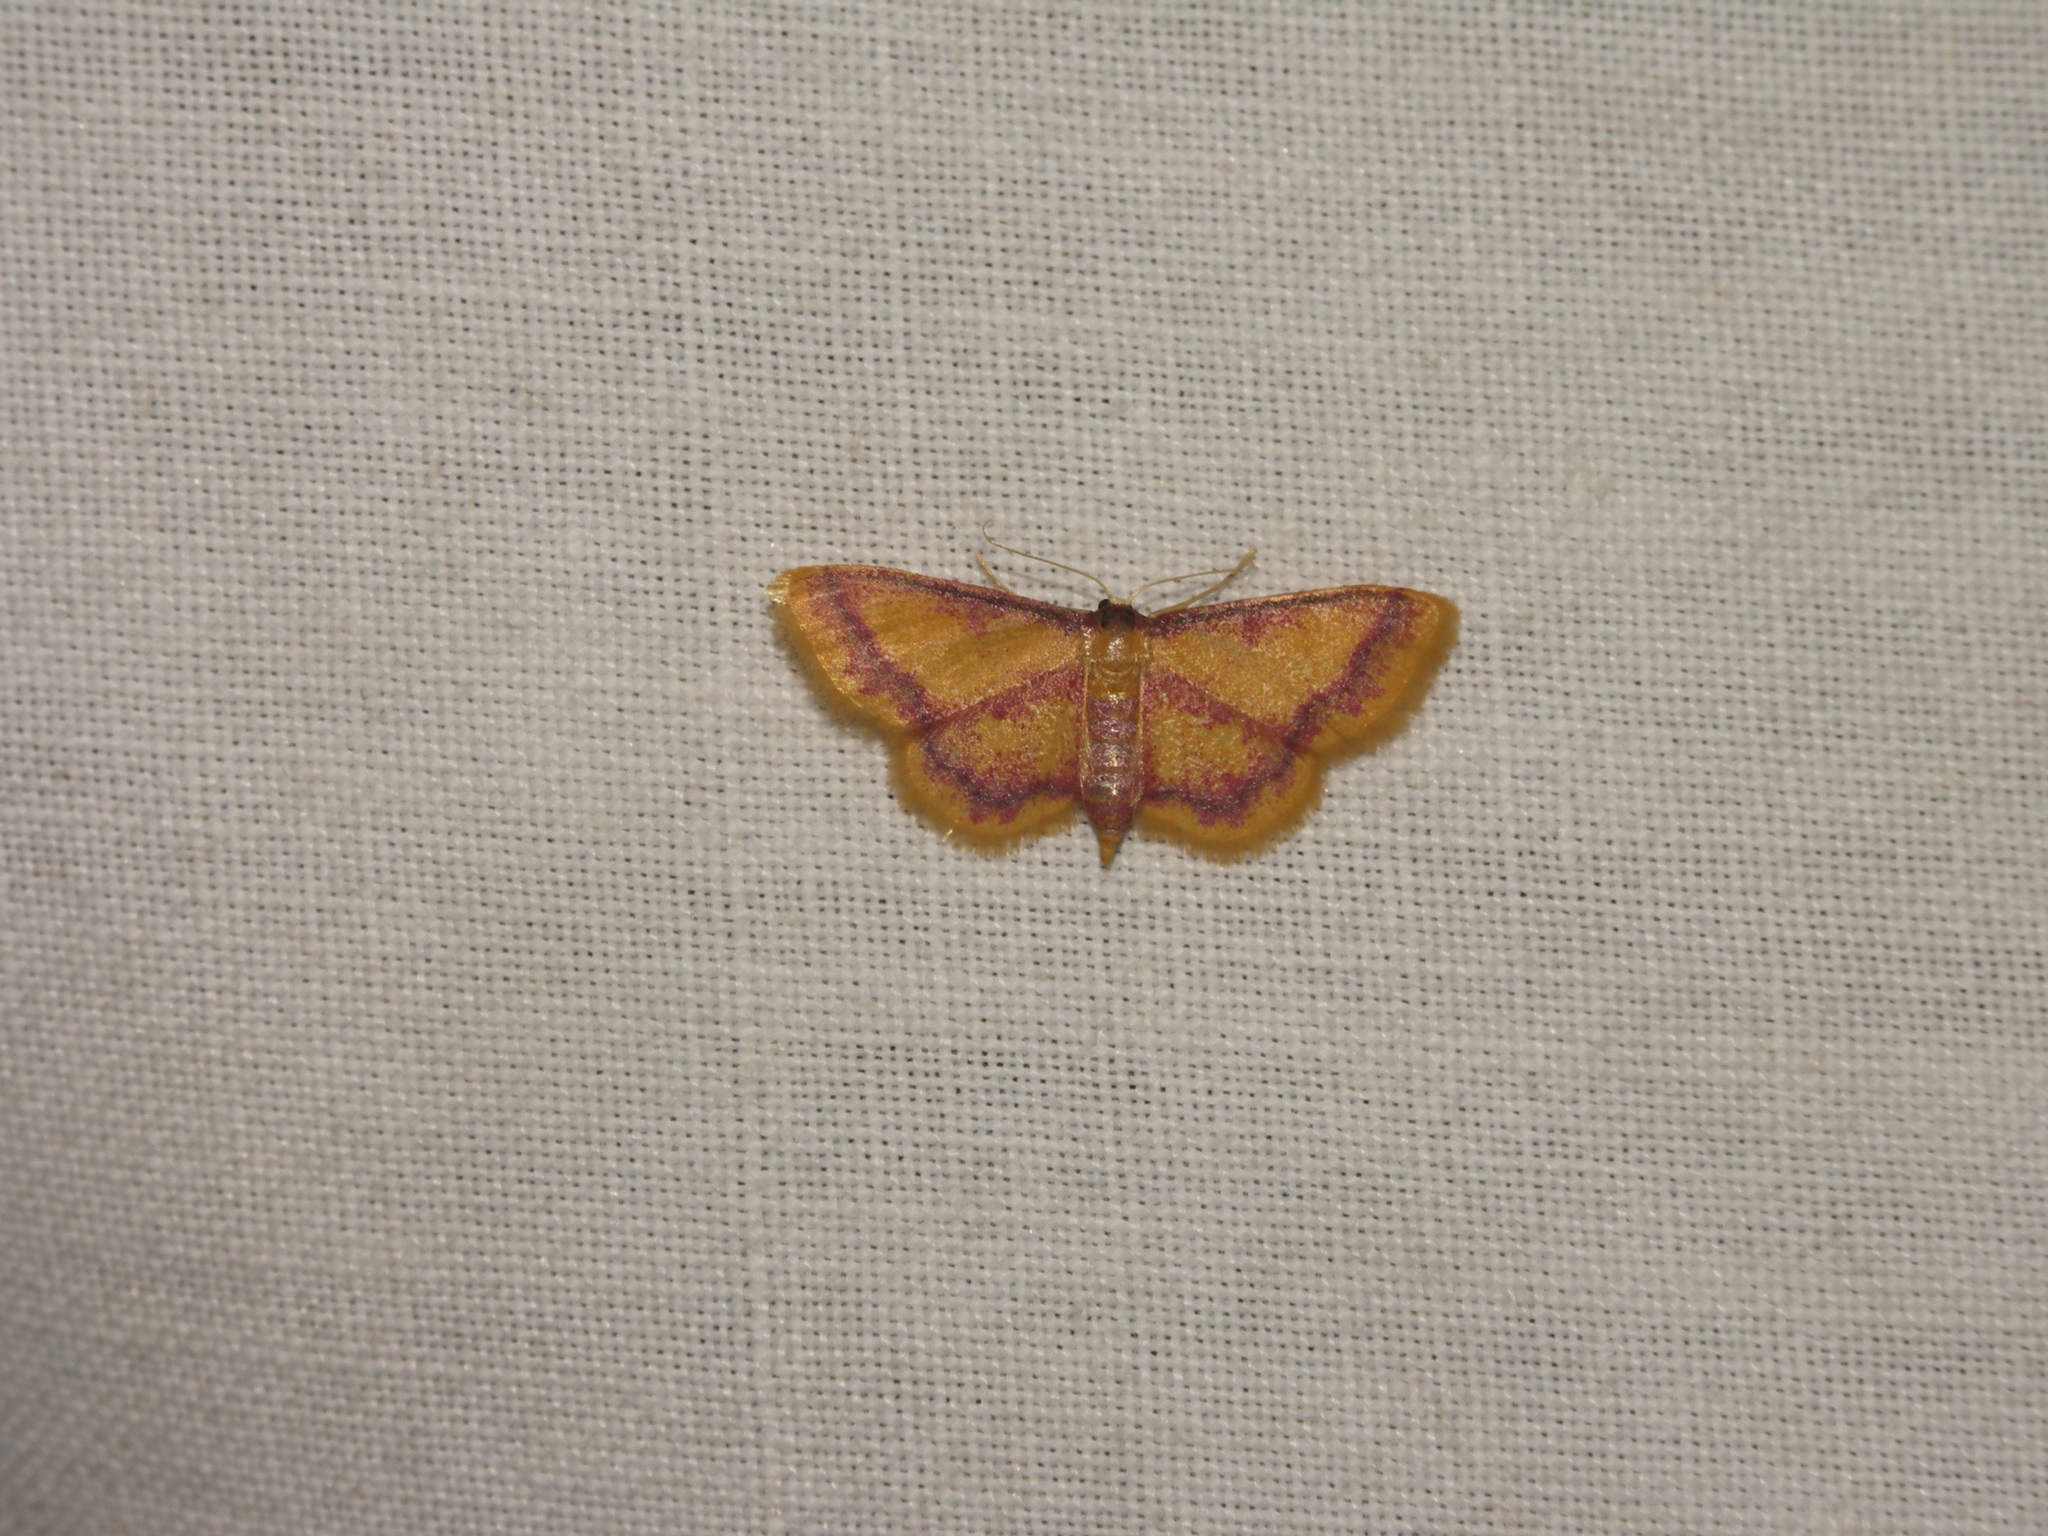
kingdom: Animalia
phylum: Arthropoda
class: Insecta
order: Lepidoptera
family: Geometridae
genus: Idaea
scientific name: Idaea muricata
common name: Purple-bordered gold
